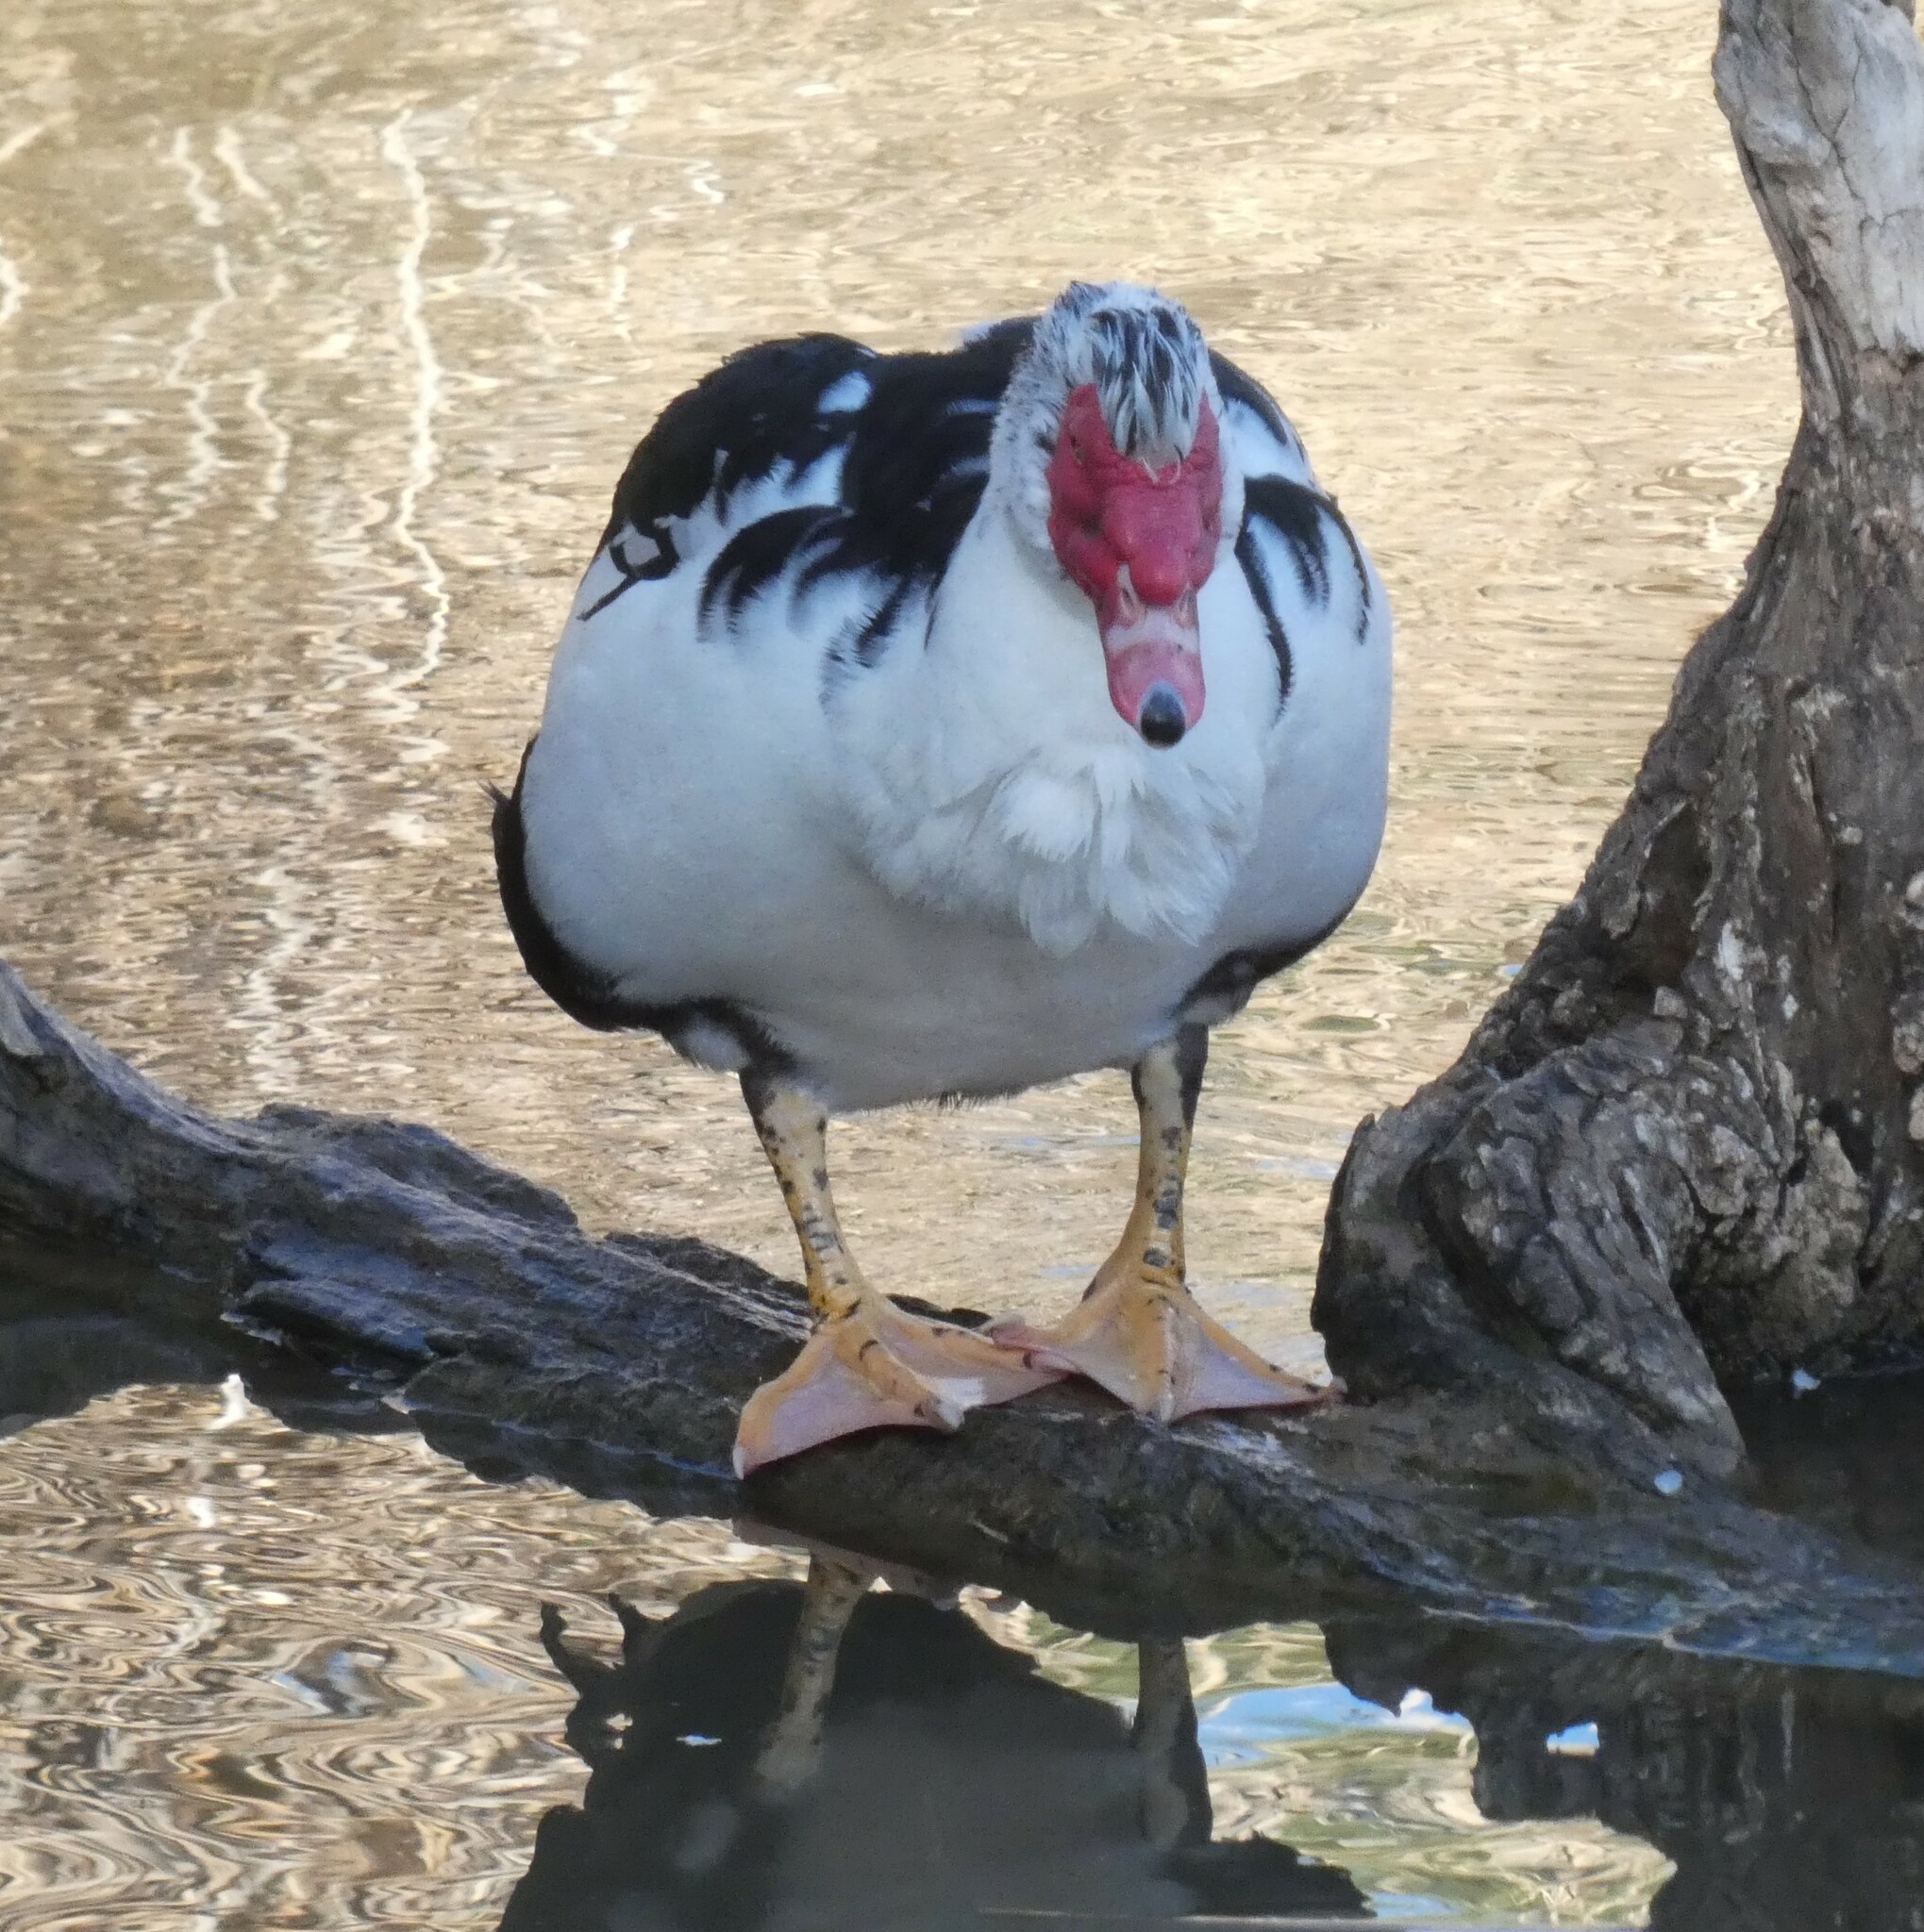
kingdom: Animalia
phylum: Chordata
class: Aves
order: Anseriformes
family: Anatidae
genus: Cairina
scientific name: Cairina moschata
